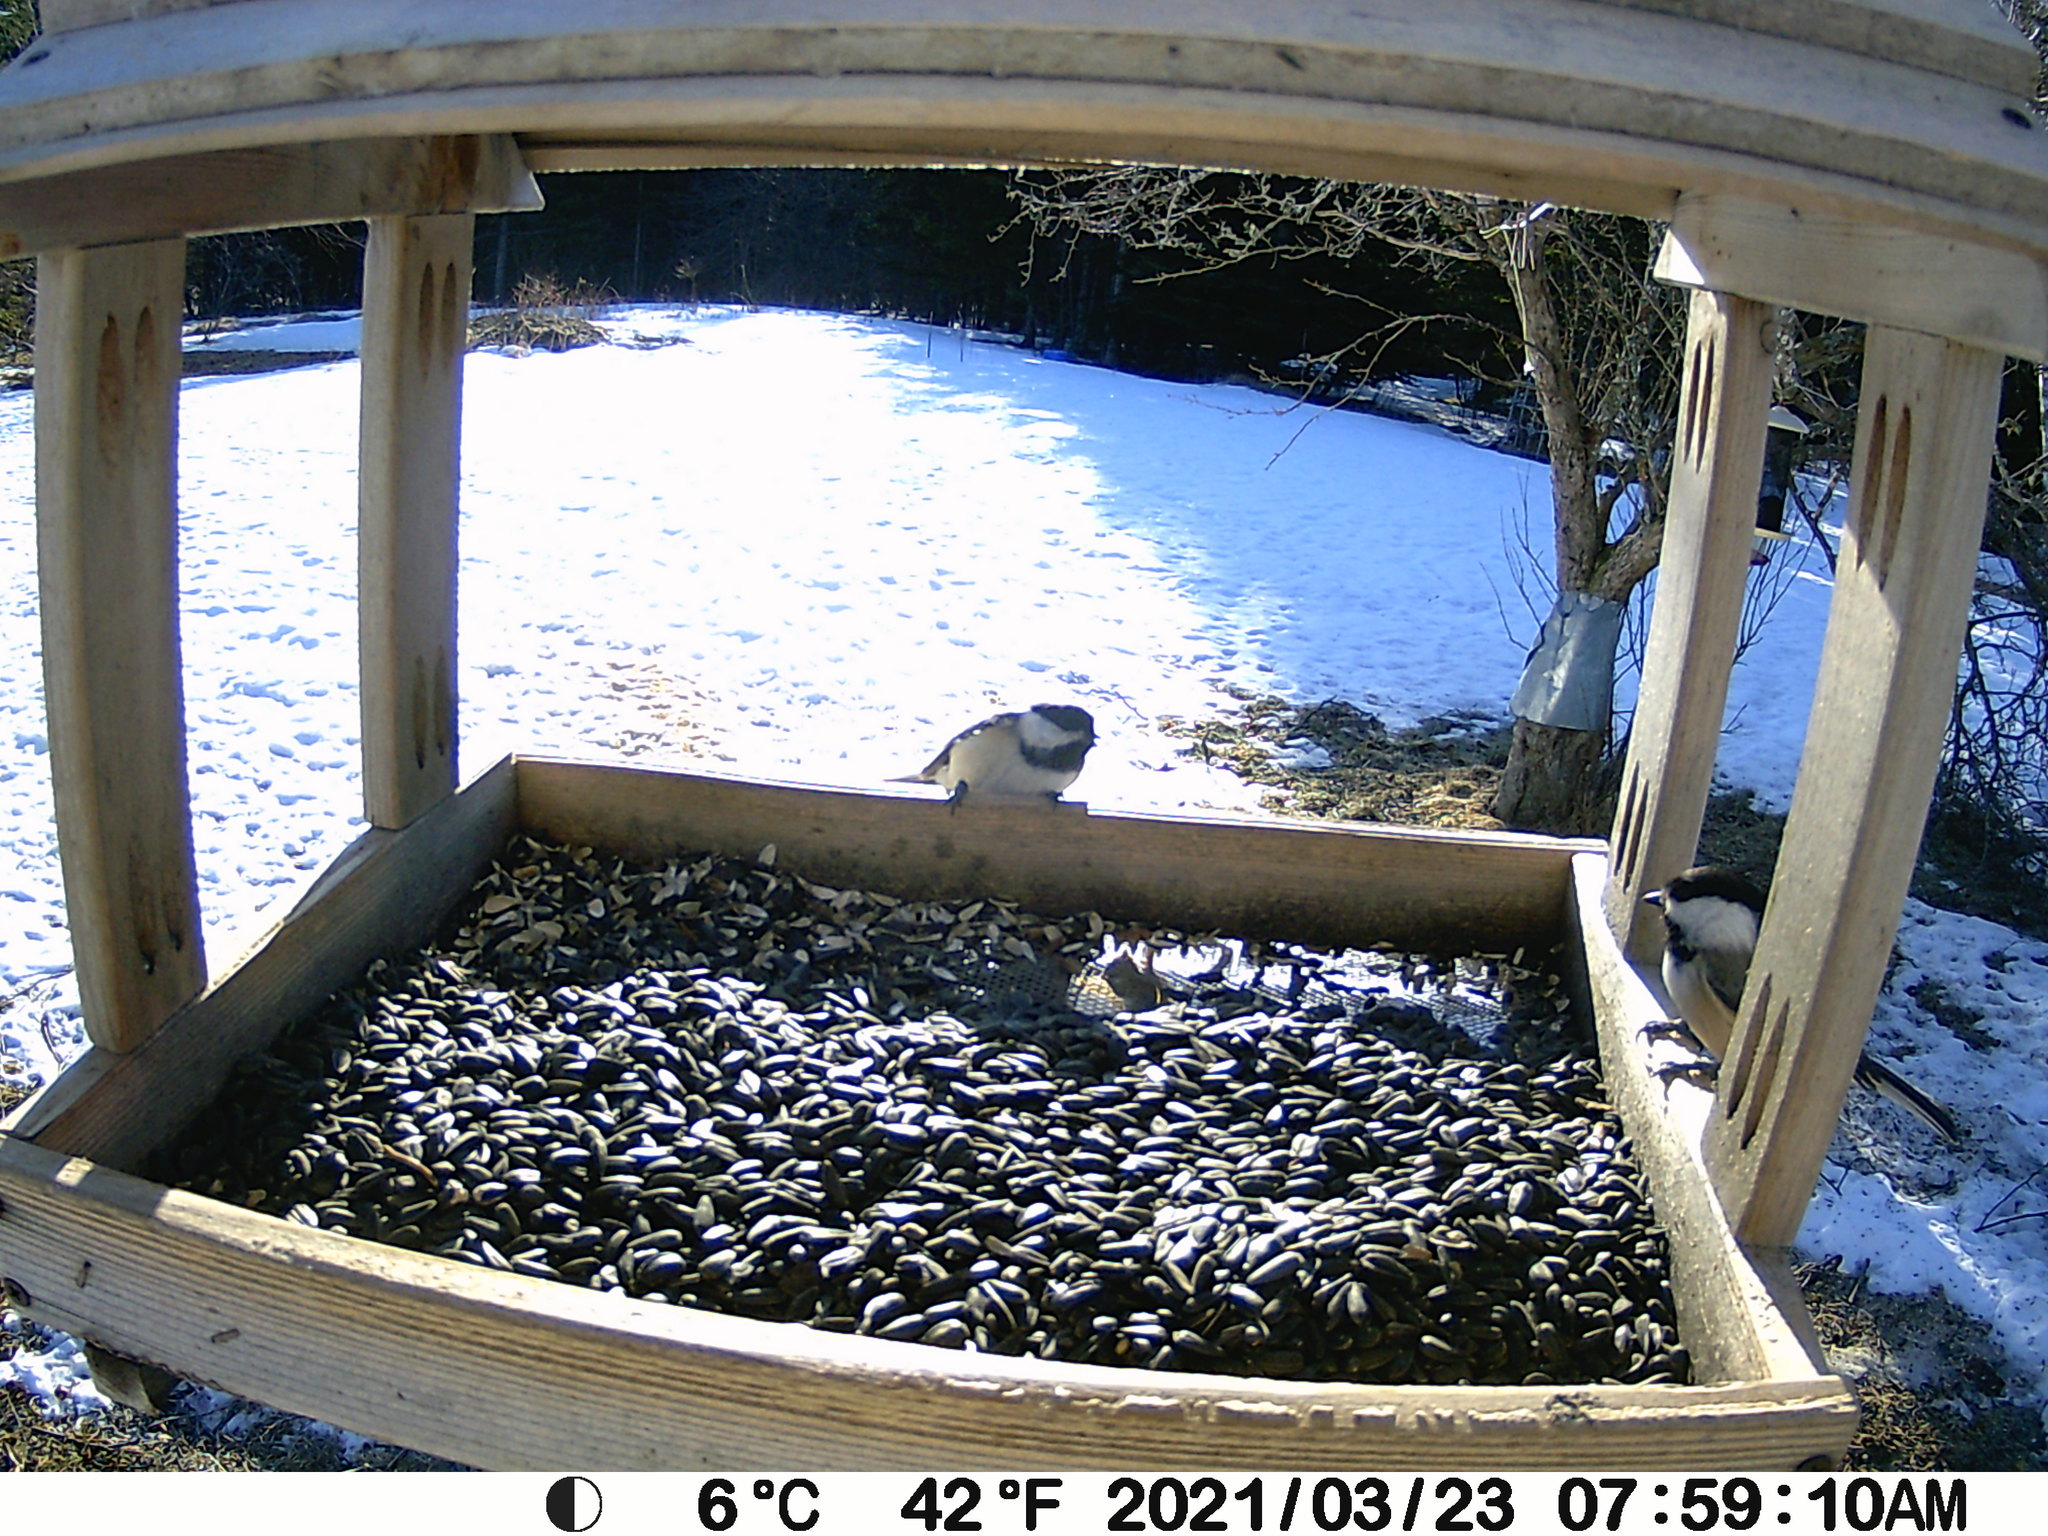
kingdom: Animalia
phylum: Chordata
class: Aves
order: Passeriformes
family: Paridae
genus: Poecile
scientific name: Poecile atricapillus
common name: Black-capped chickadee
